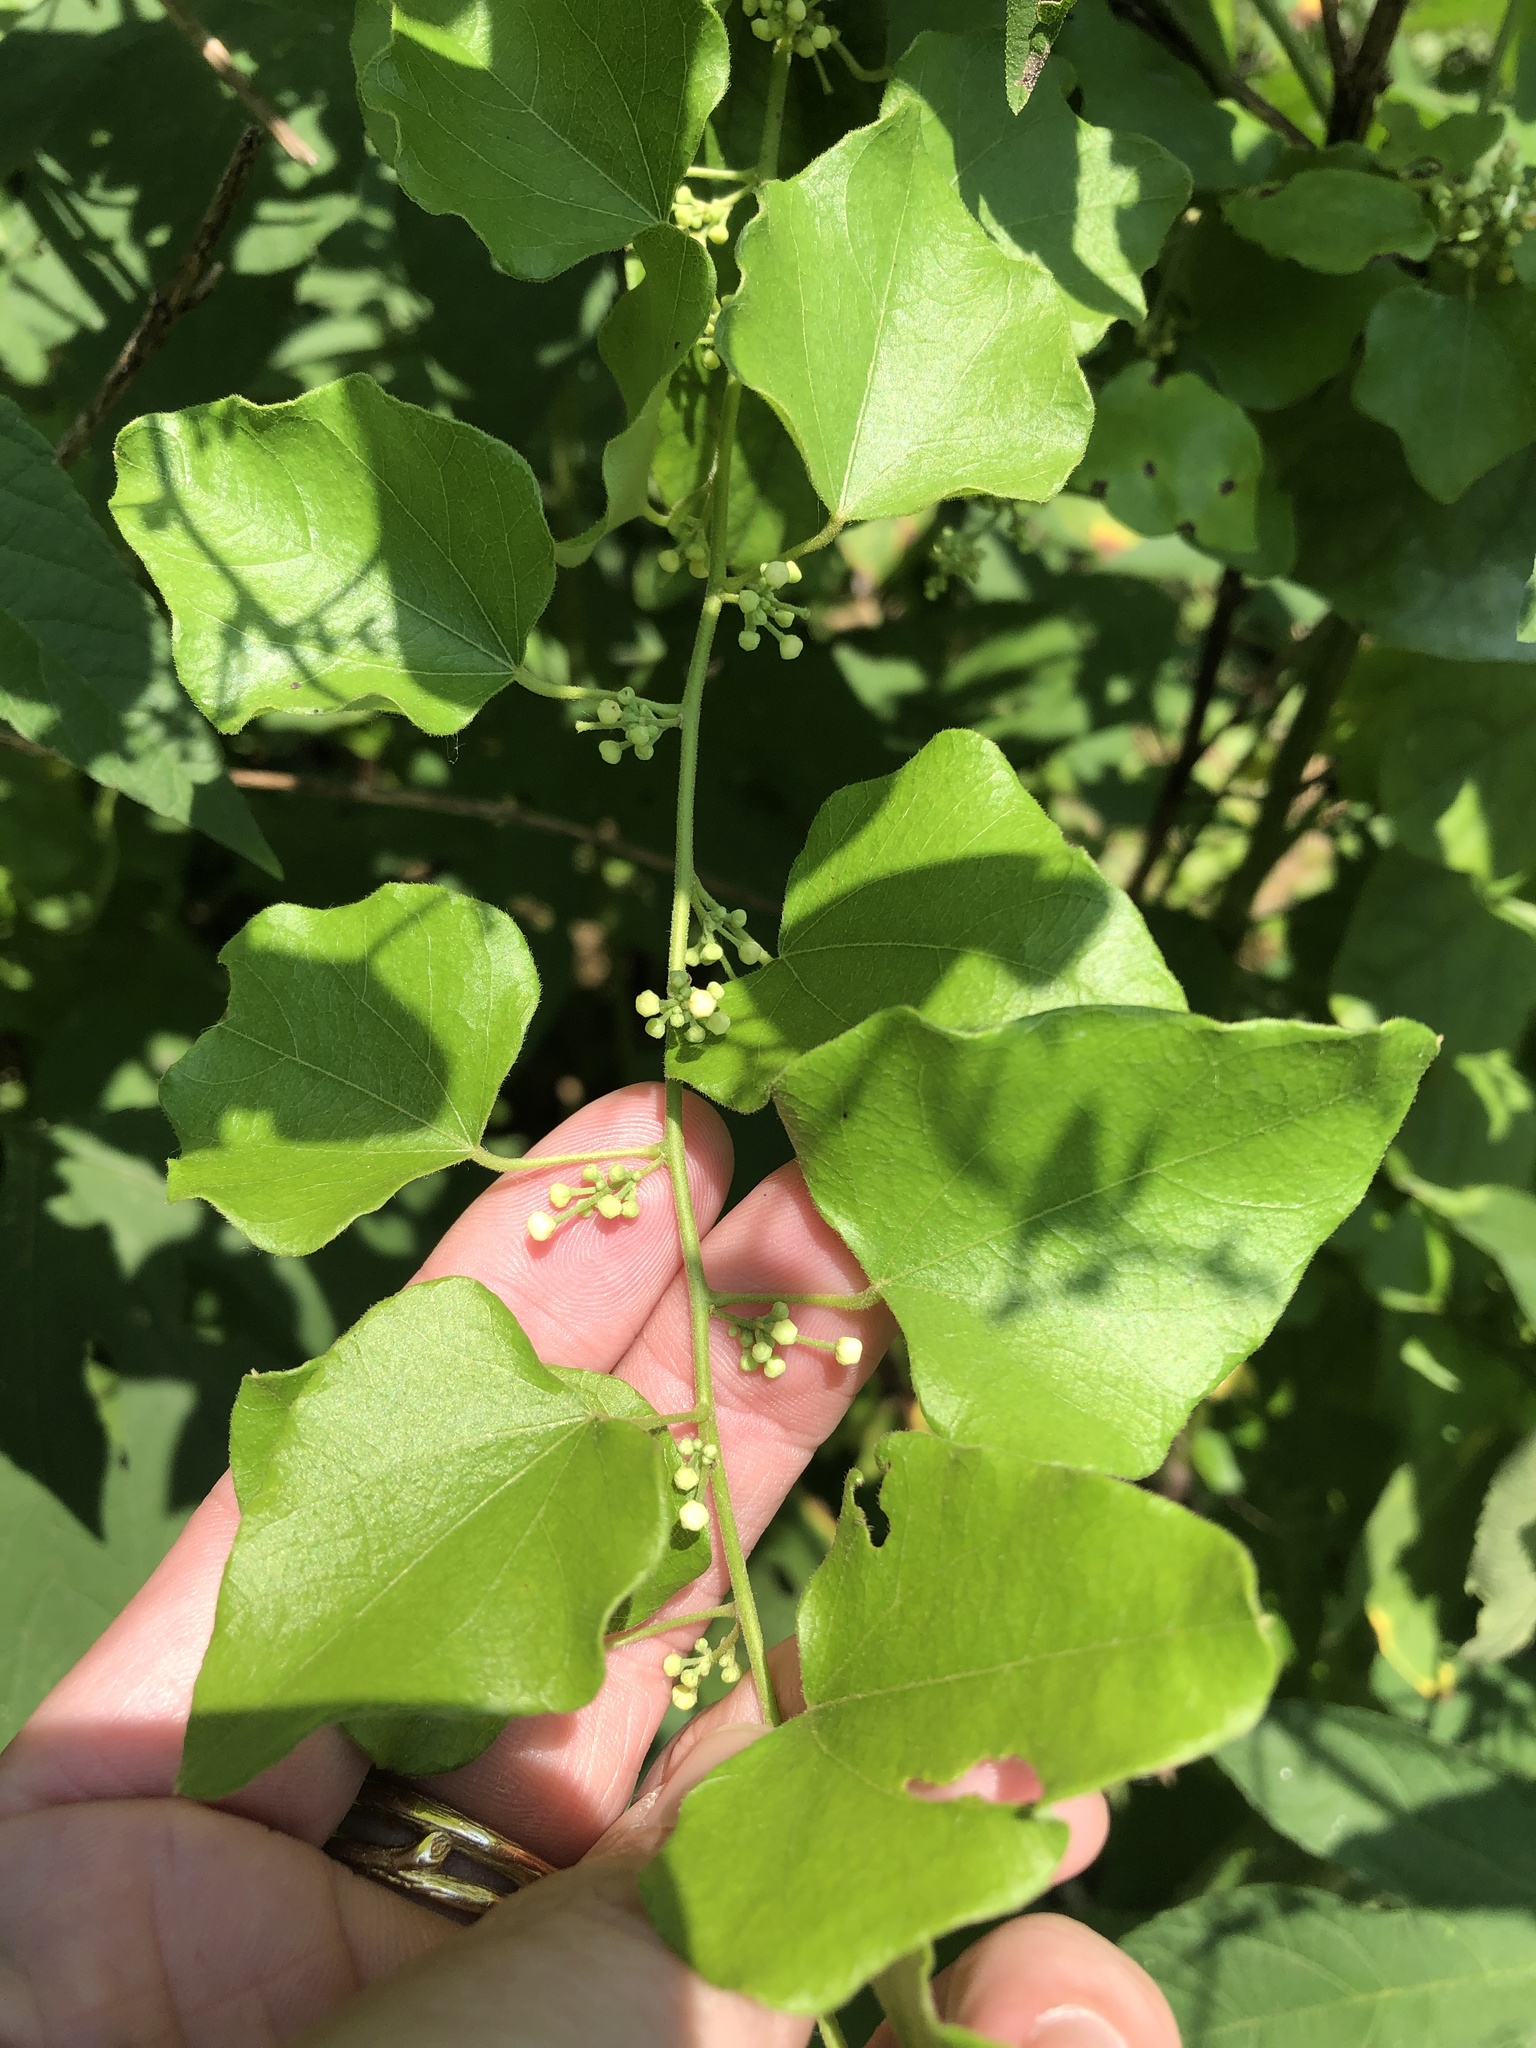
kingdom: Plantae
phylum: Tracheophyta
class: Magnoliopsida
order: Ranunculales
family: Menispermaceae
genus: Cocculus
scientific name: Cocculus carolinus
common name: Carolina moonseed
